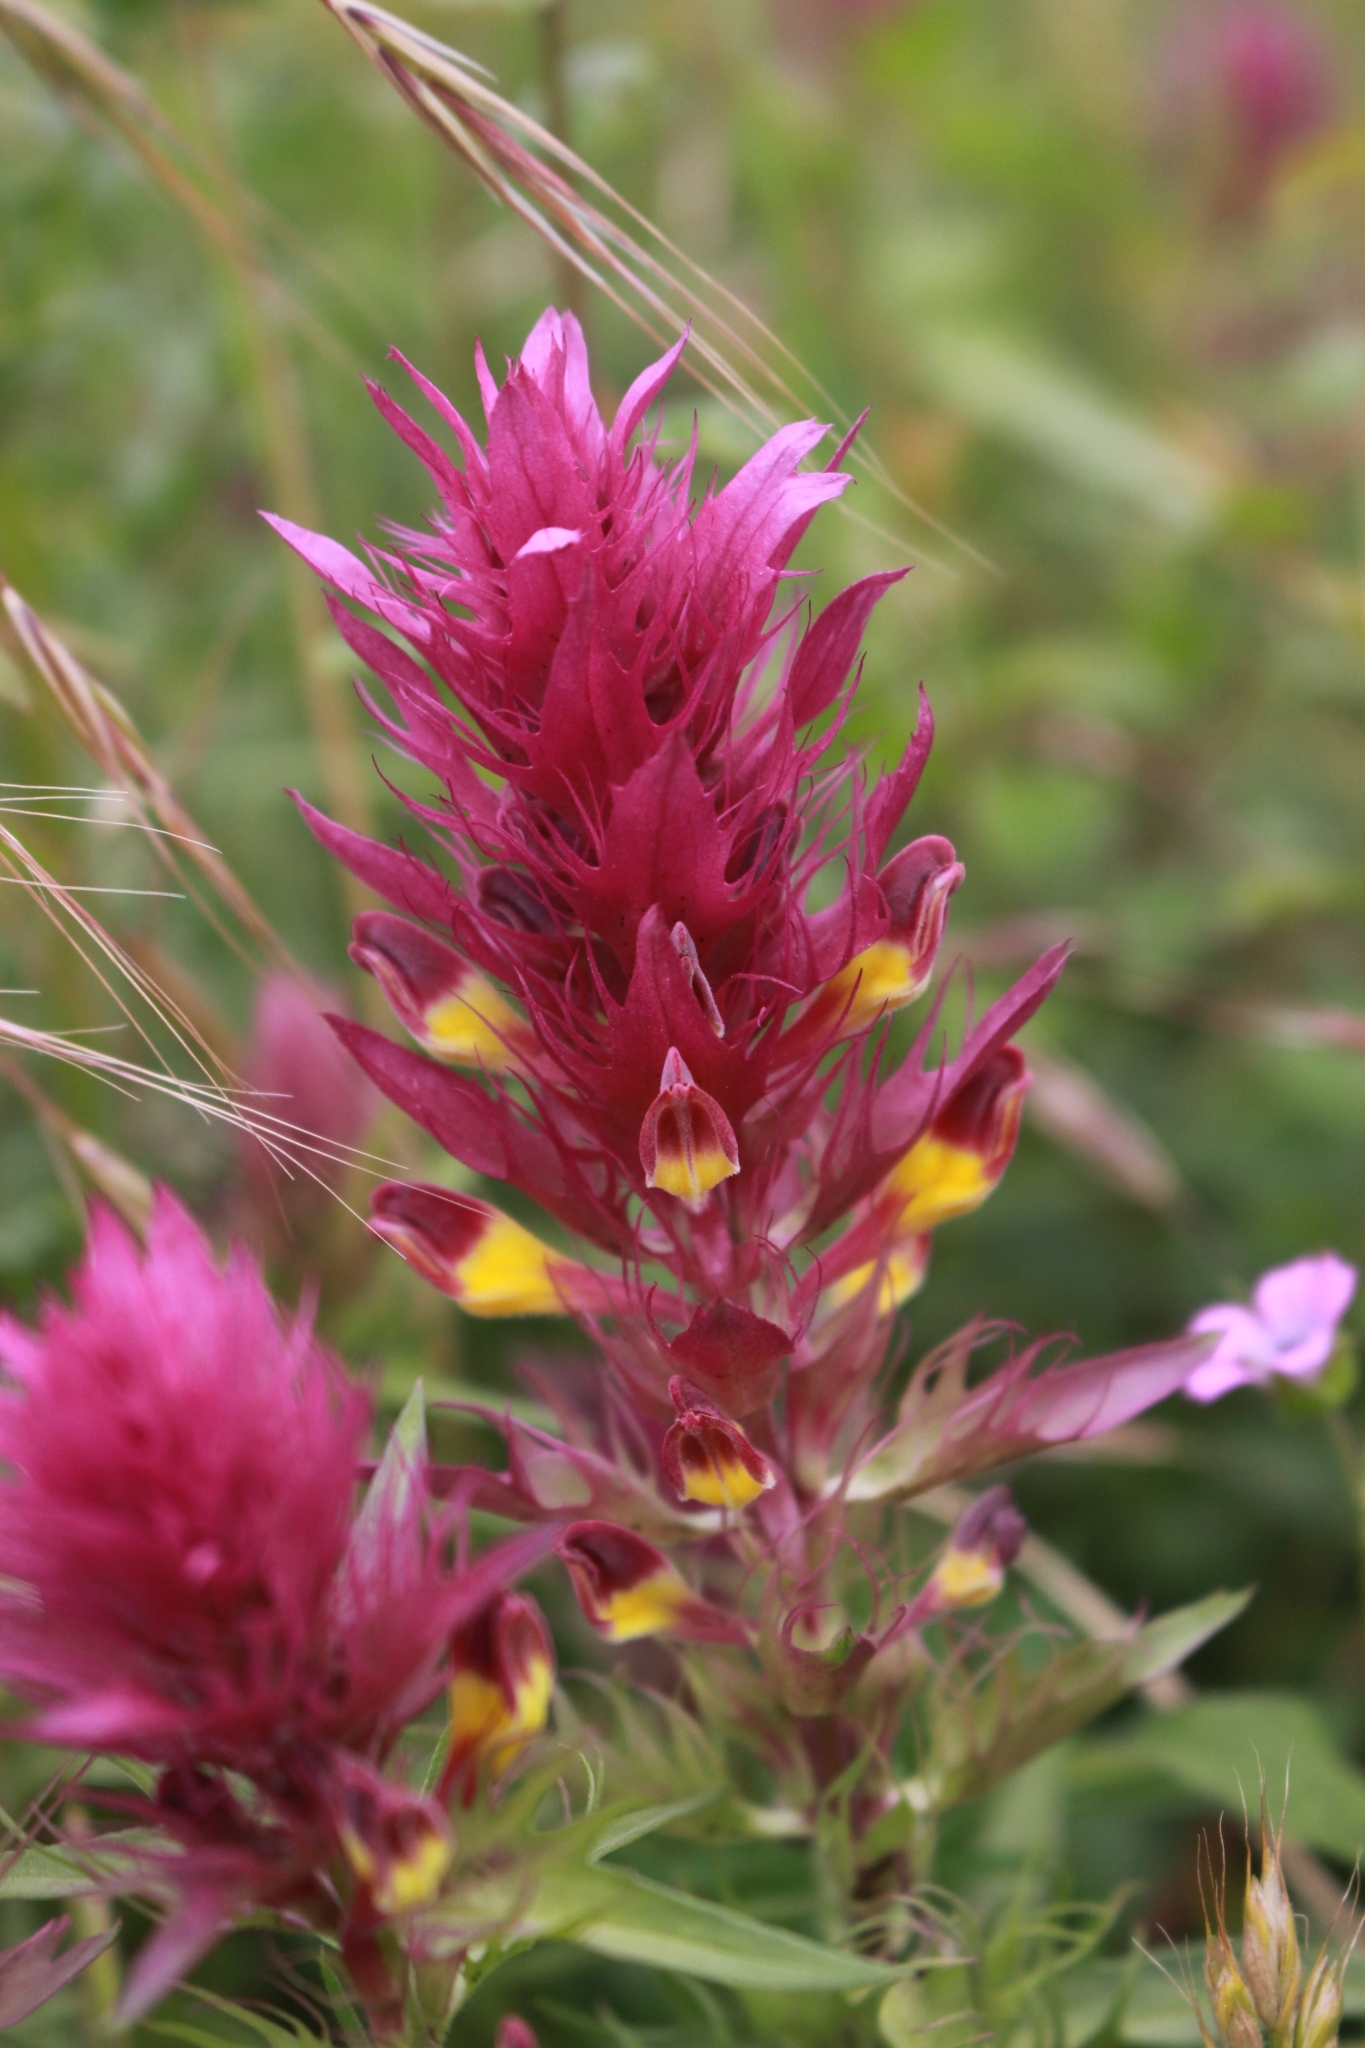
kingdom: Plantae
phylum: Tracheophyta
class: Magnoliopsida
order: Lamiales
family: Orobanchaceae
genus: Melampyrum
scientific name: Melampyrum arvense
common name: Field cow-wheat
